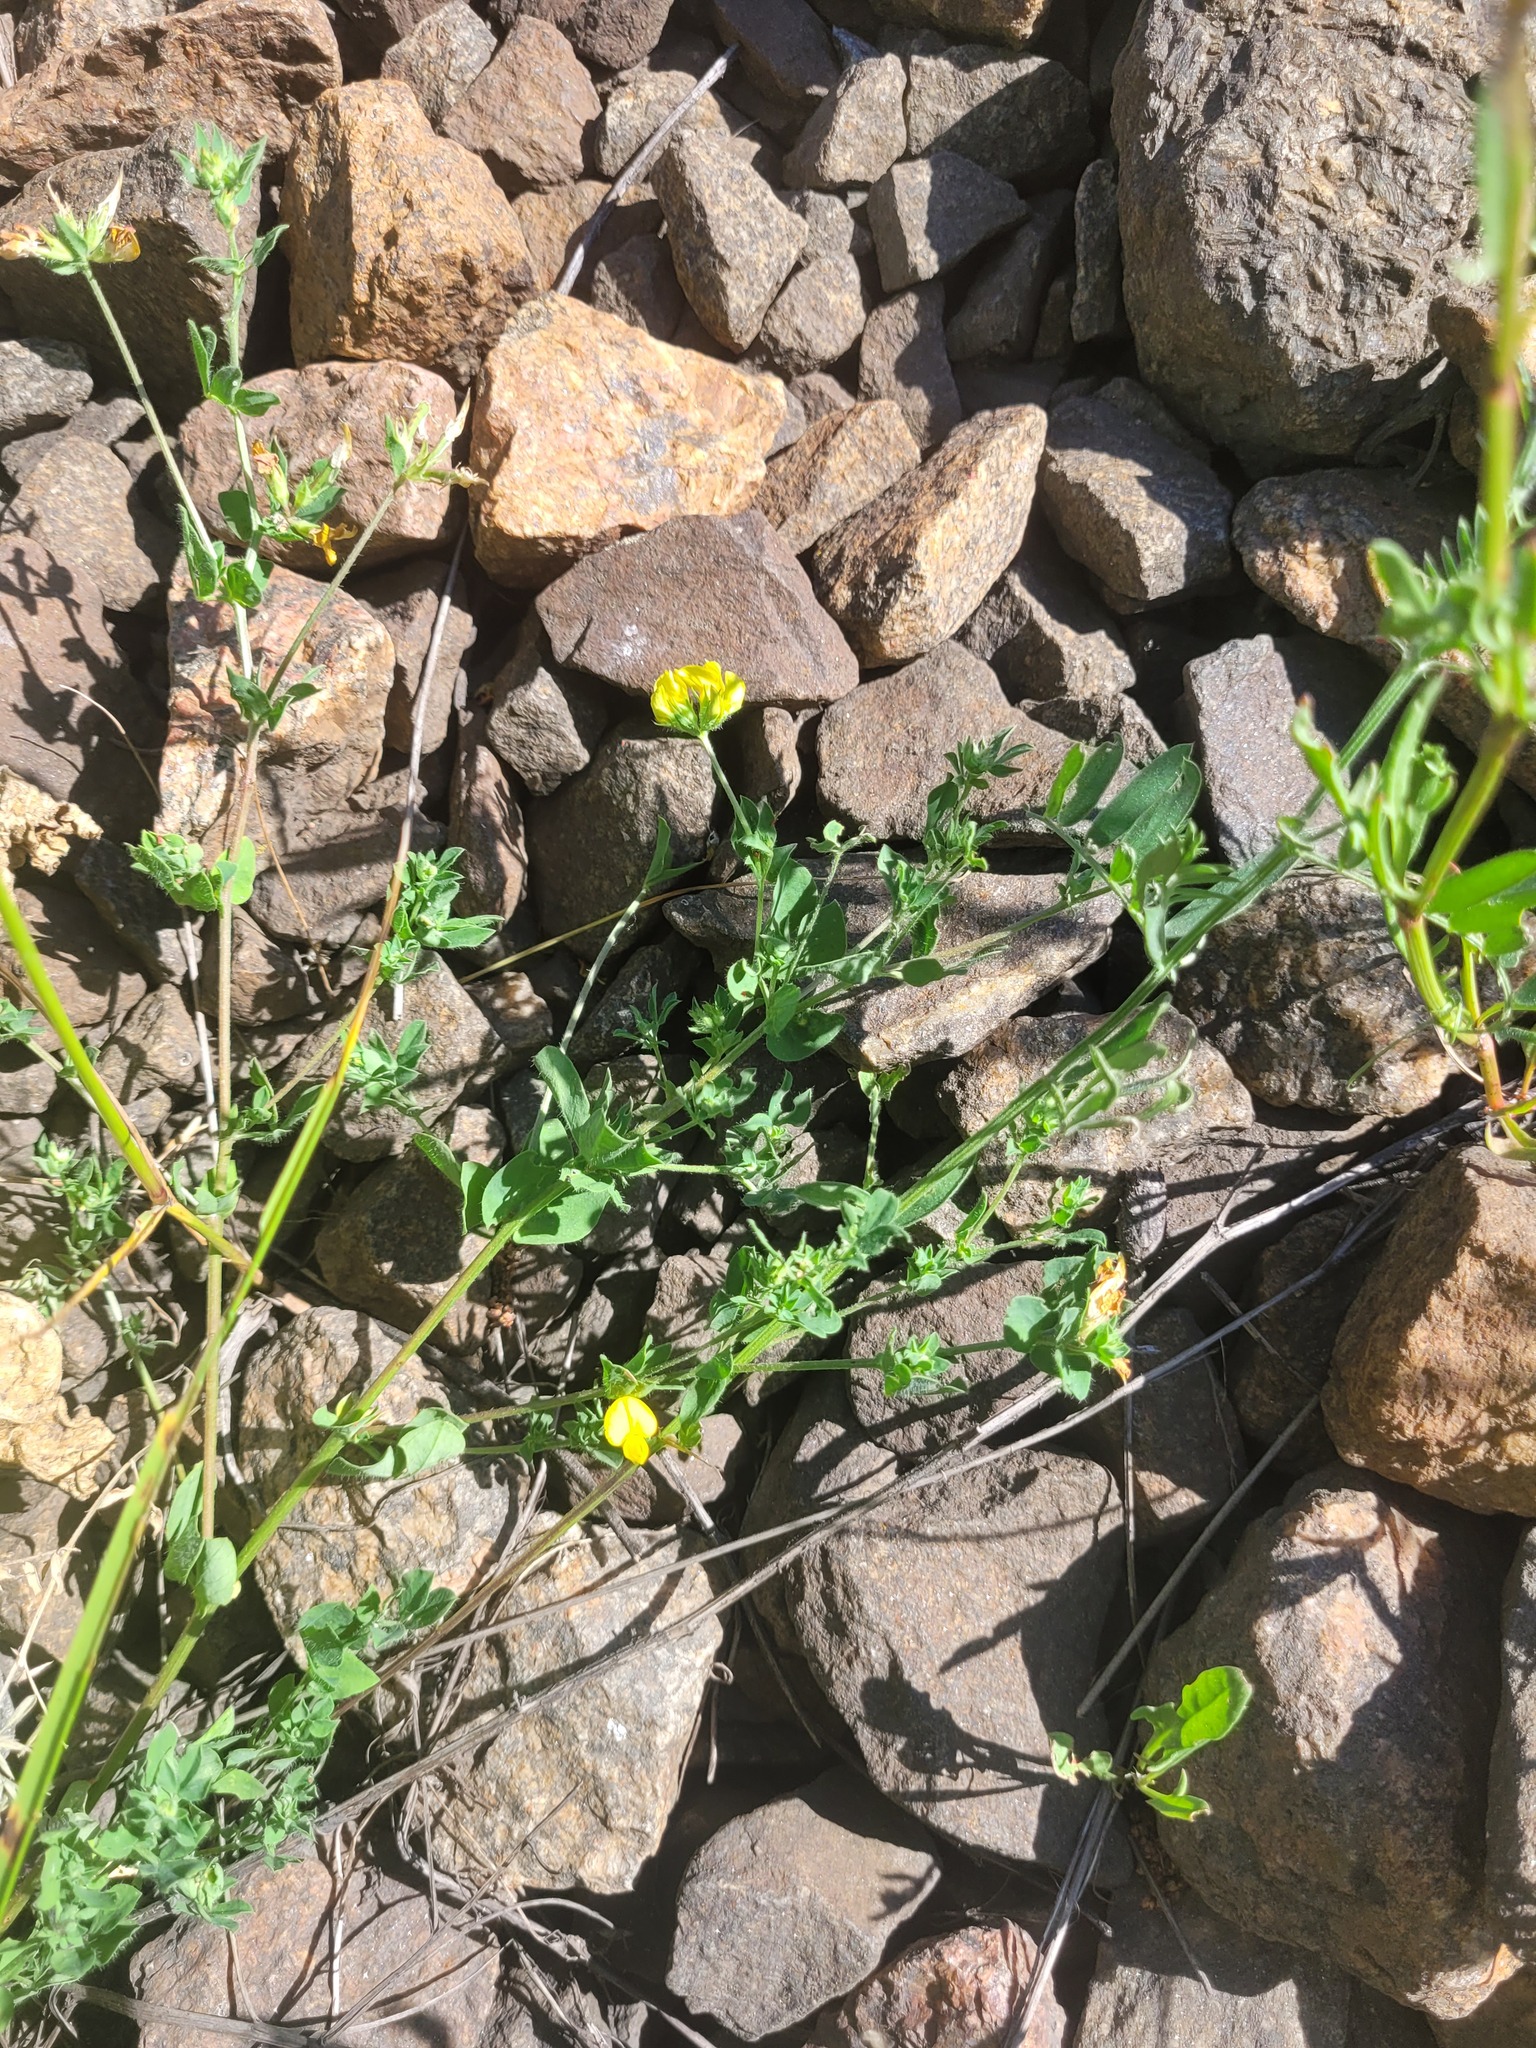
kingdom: Plantae
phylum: Tracheophyta
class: Magnoliopsida
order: Fabales
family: Fabaceae
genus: Lotus
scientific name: Lotus corniculatus
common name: Common bird's-foot-trefoil
